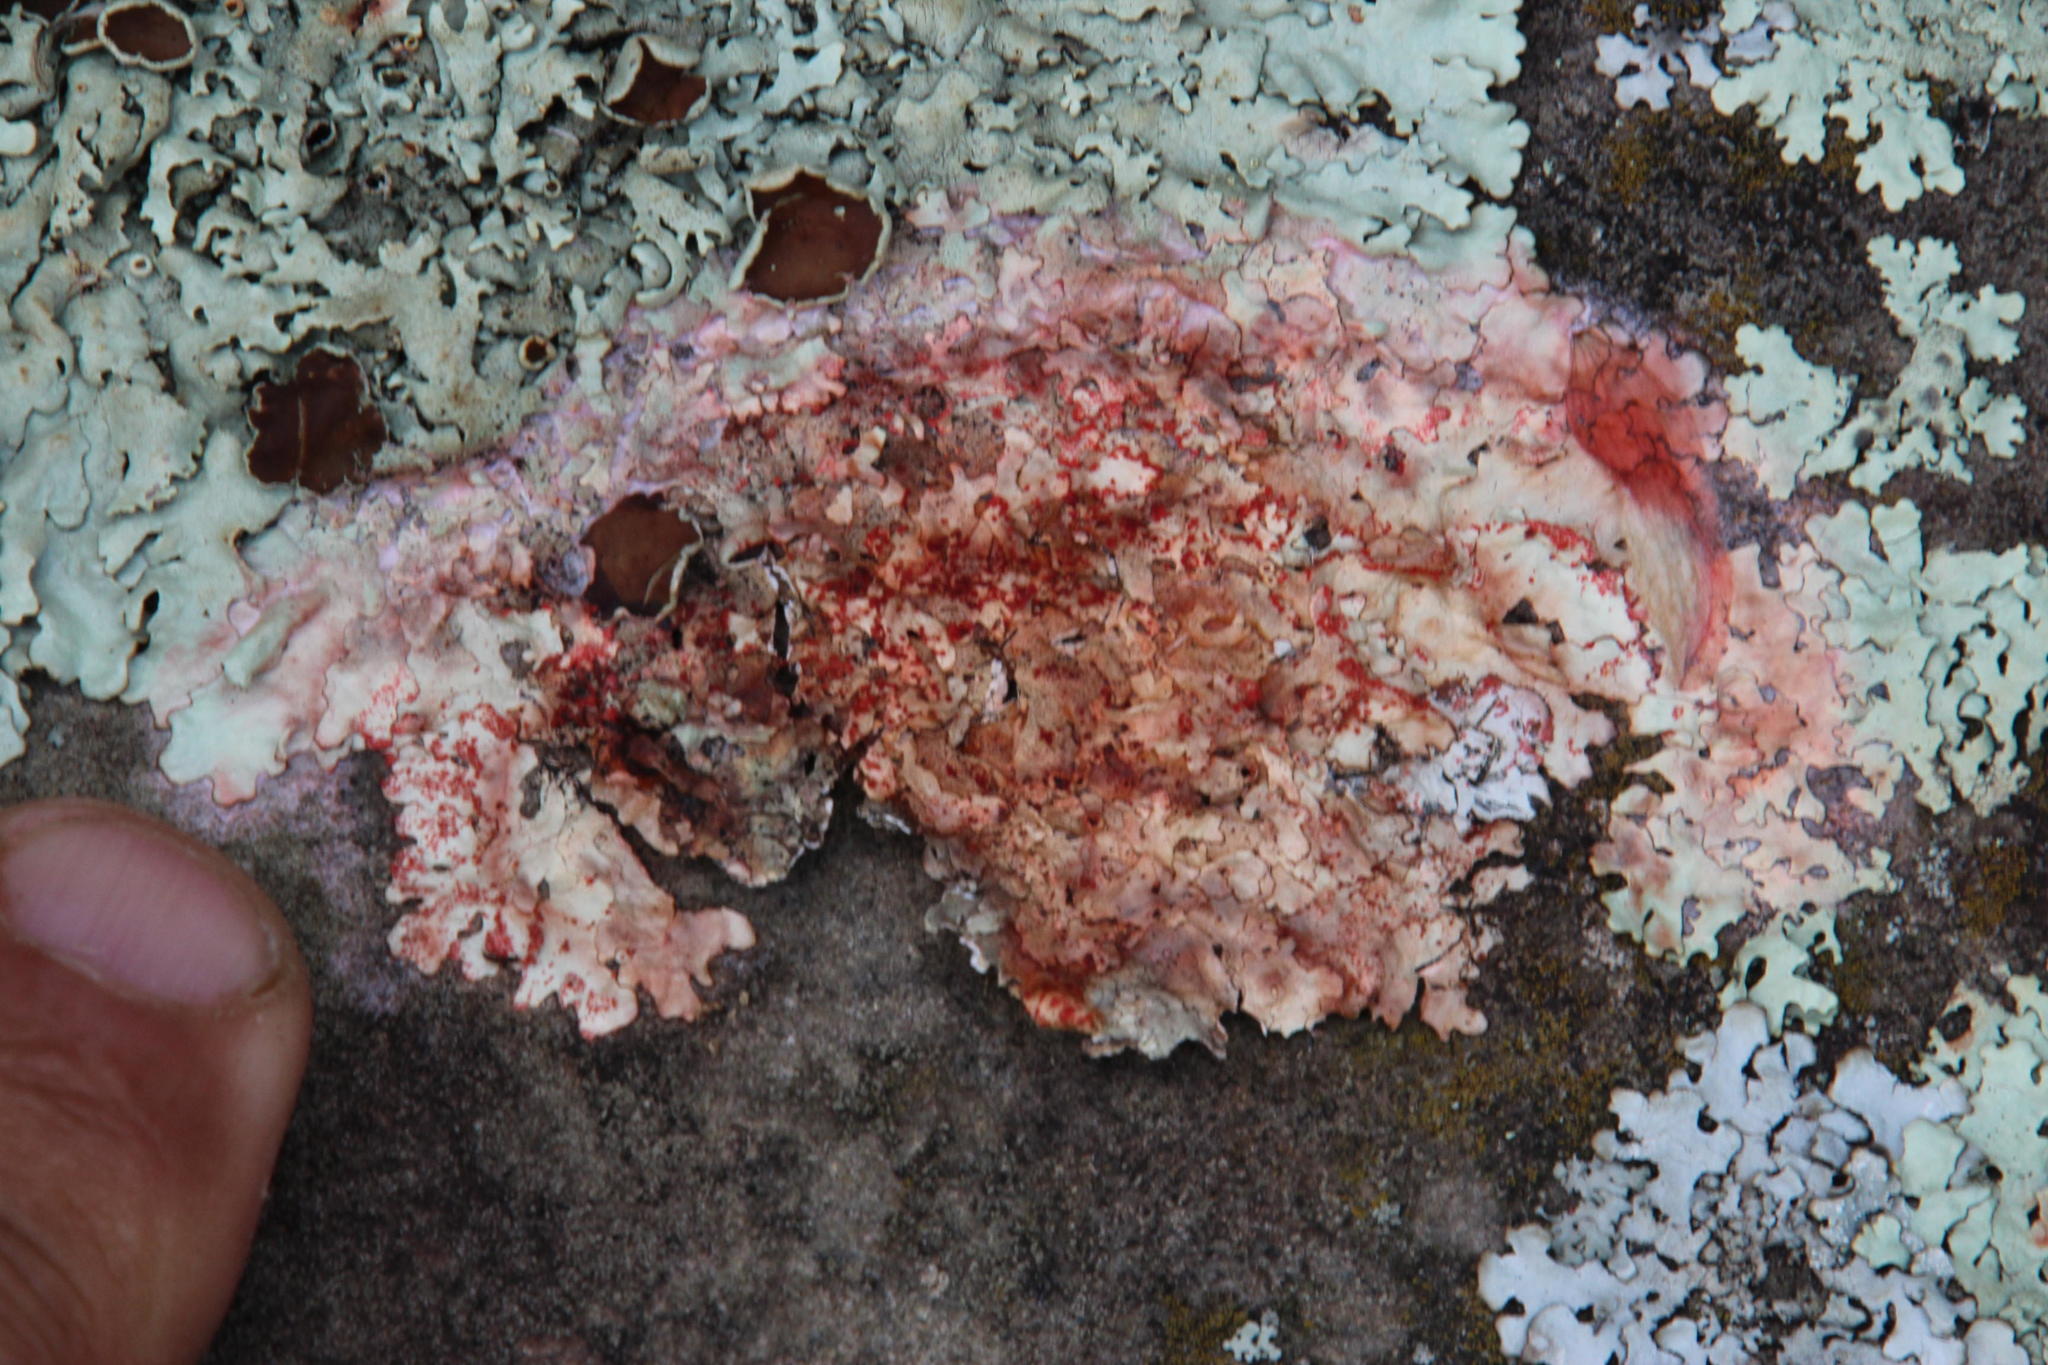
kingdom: Fungi
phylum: Basidiomycota
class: Agaricomycetes
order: Corticiales
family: Corticiaceae
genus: Marchandiomyces
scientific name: Marchandiomyces corallinus
